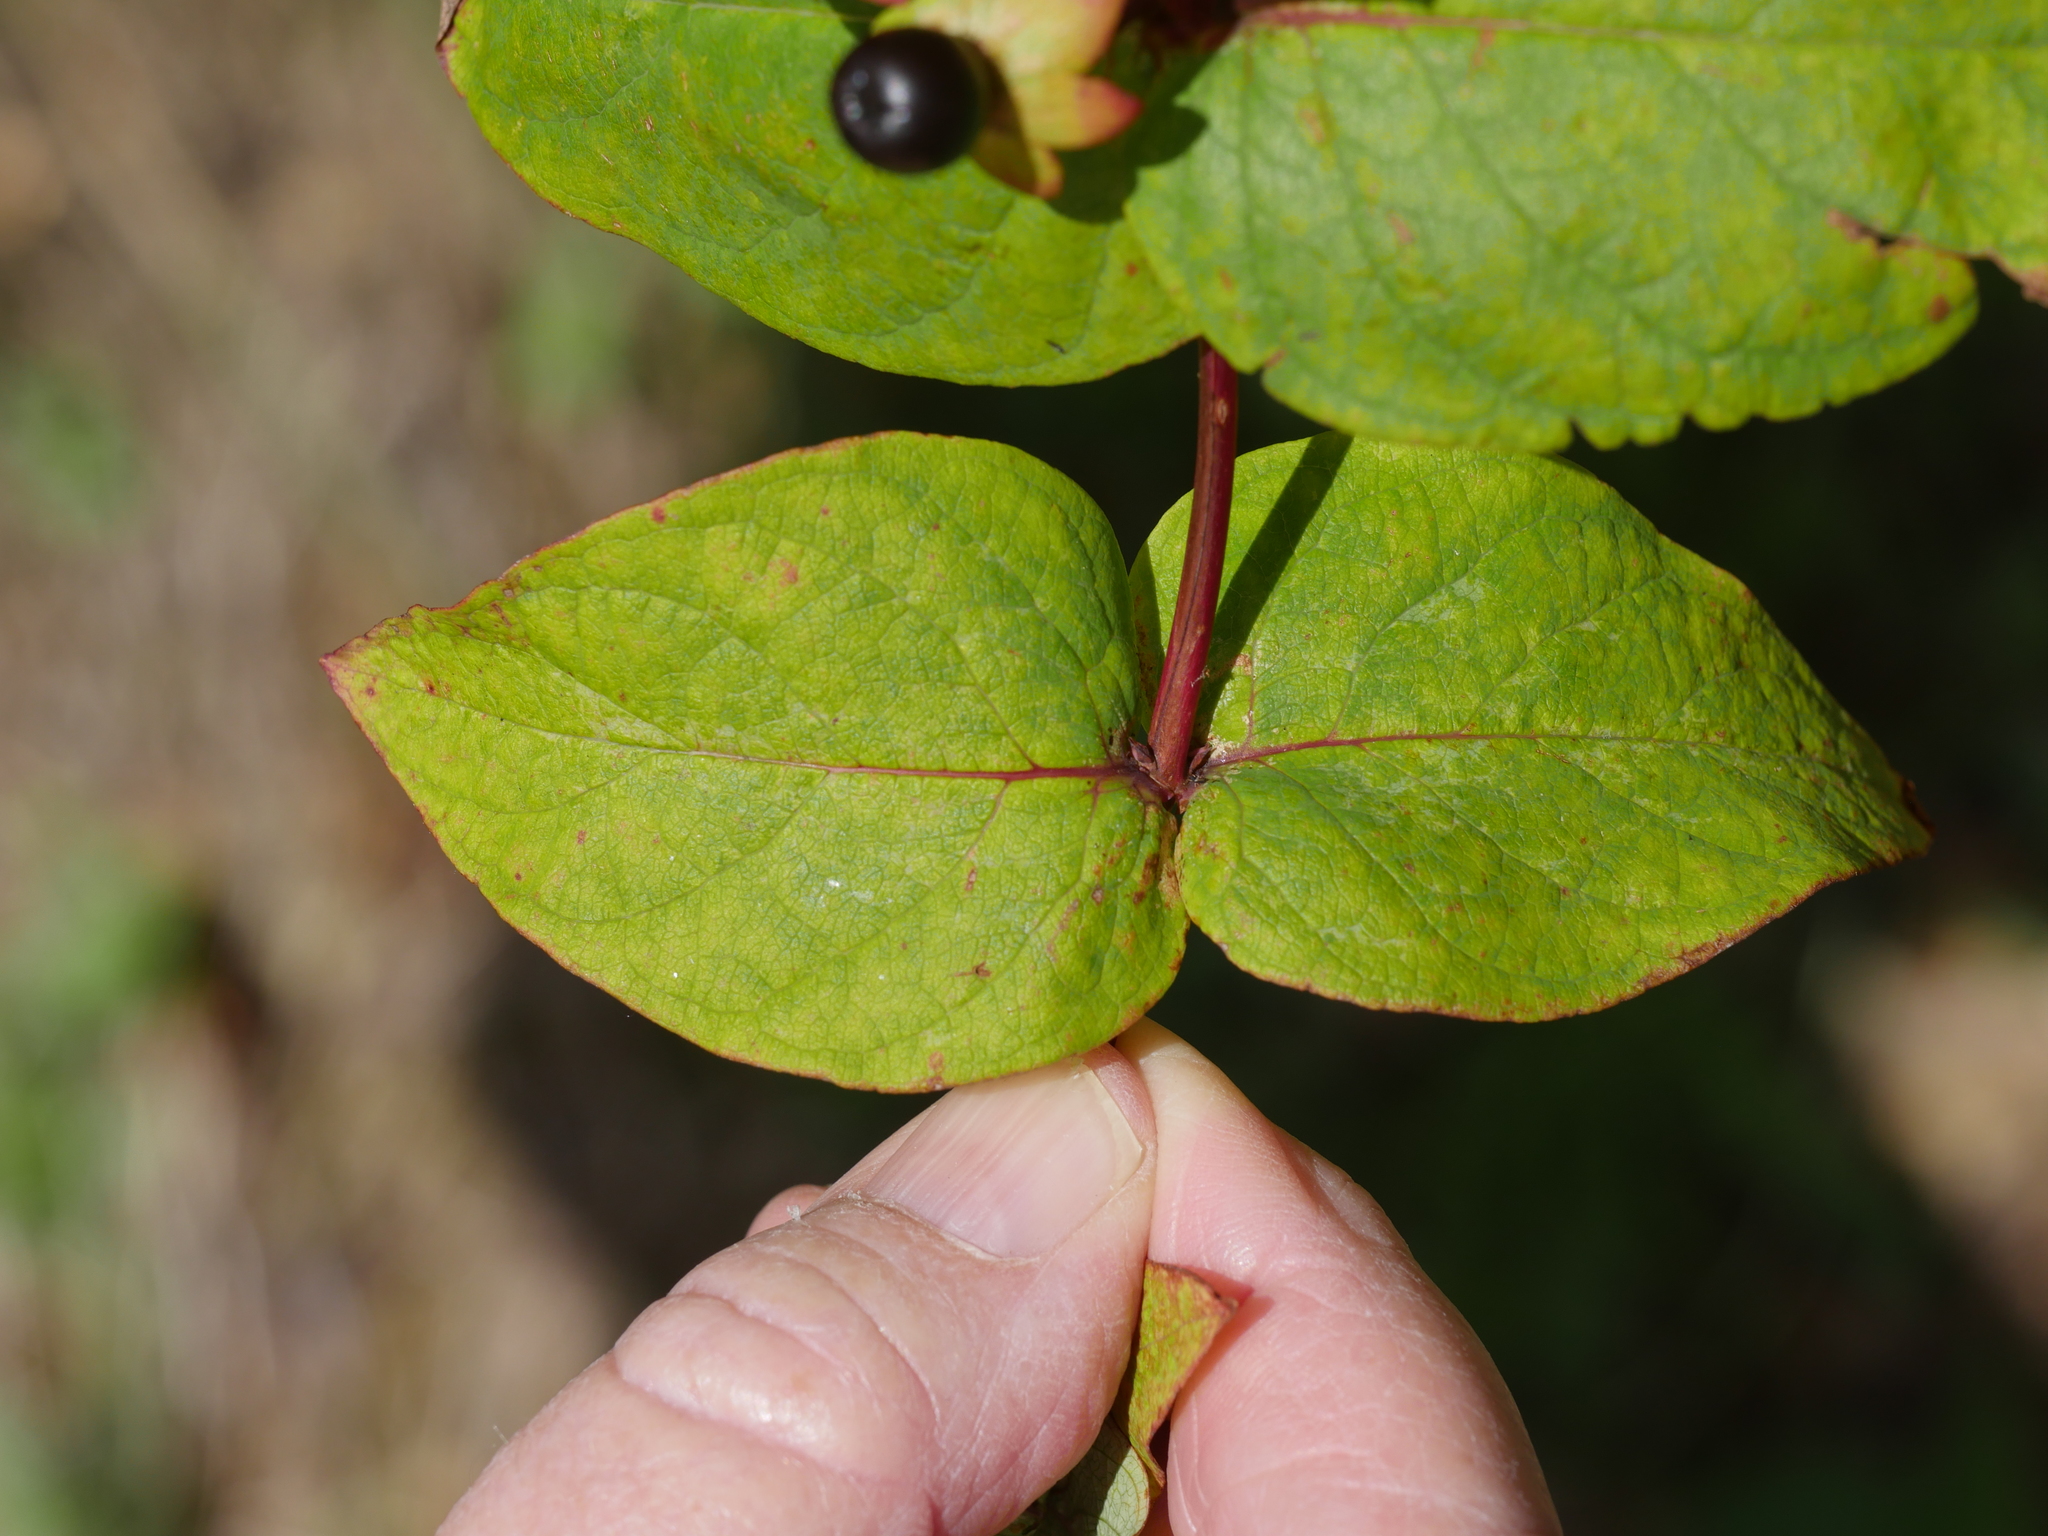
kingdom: Plantae
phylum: Tracheophyta
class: Magnoliopsida
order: Malpighiales
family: Hypericaceae
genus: Hypericum
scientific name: Hypericum androsaemum
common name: Sweet-amber
